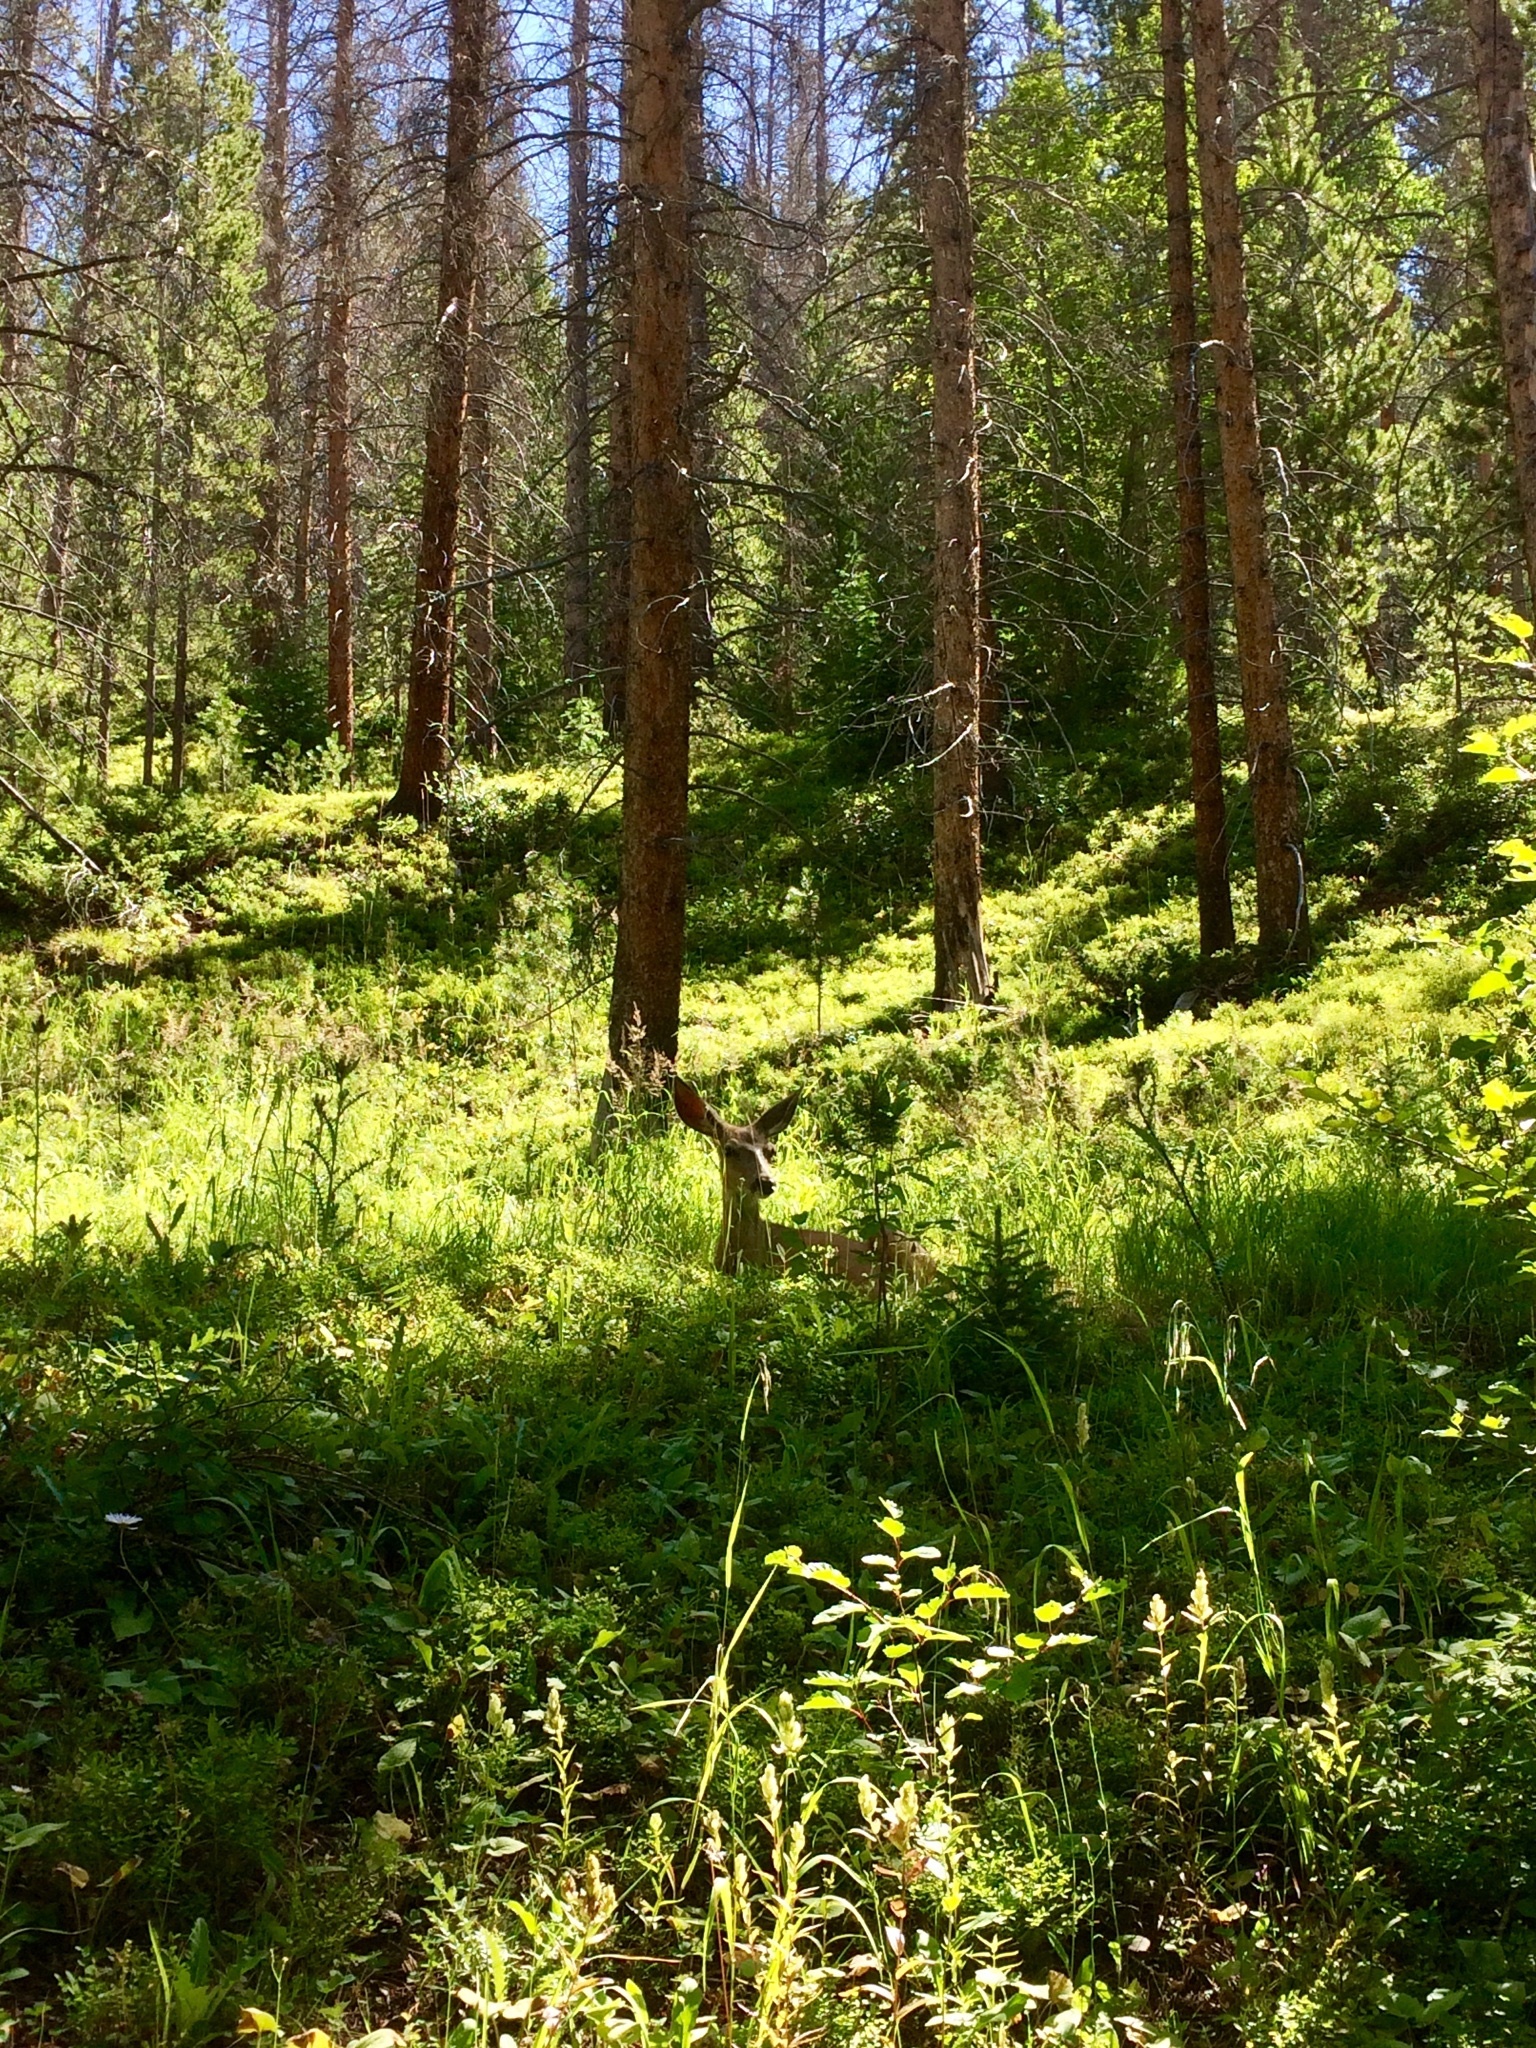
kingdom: Animalia
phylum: Chordata
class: Mammalia
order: Artiodactyla
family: Cervidae
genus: Odocoileus
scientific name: Odocoileus hemionus
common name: Mule deer
